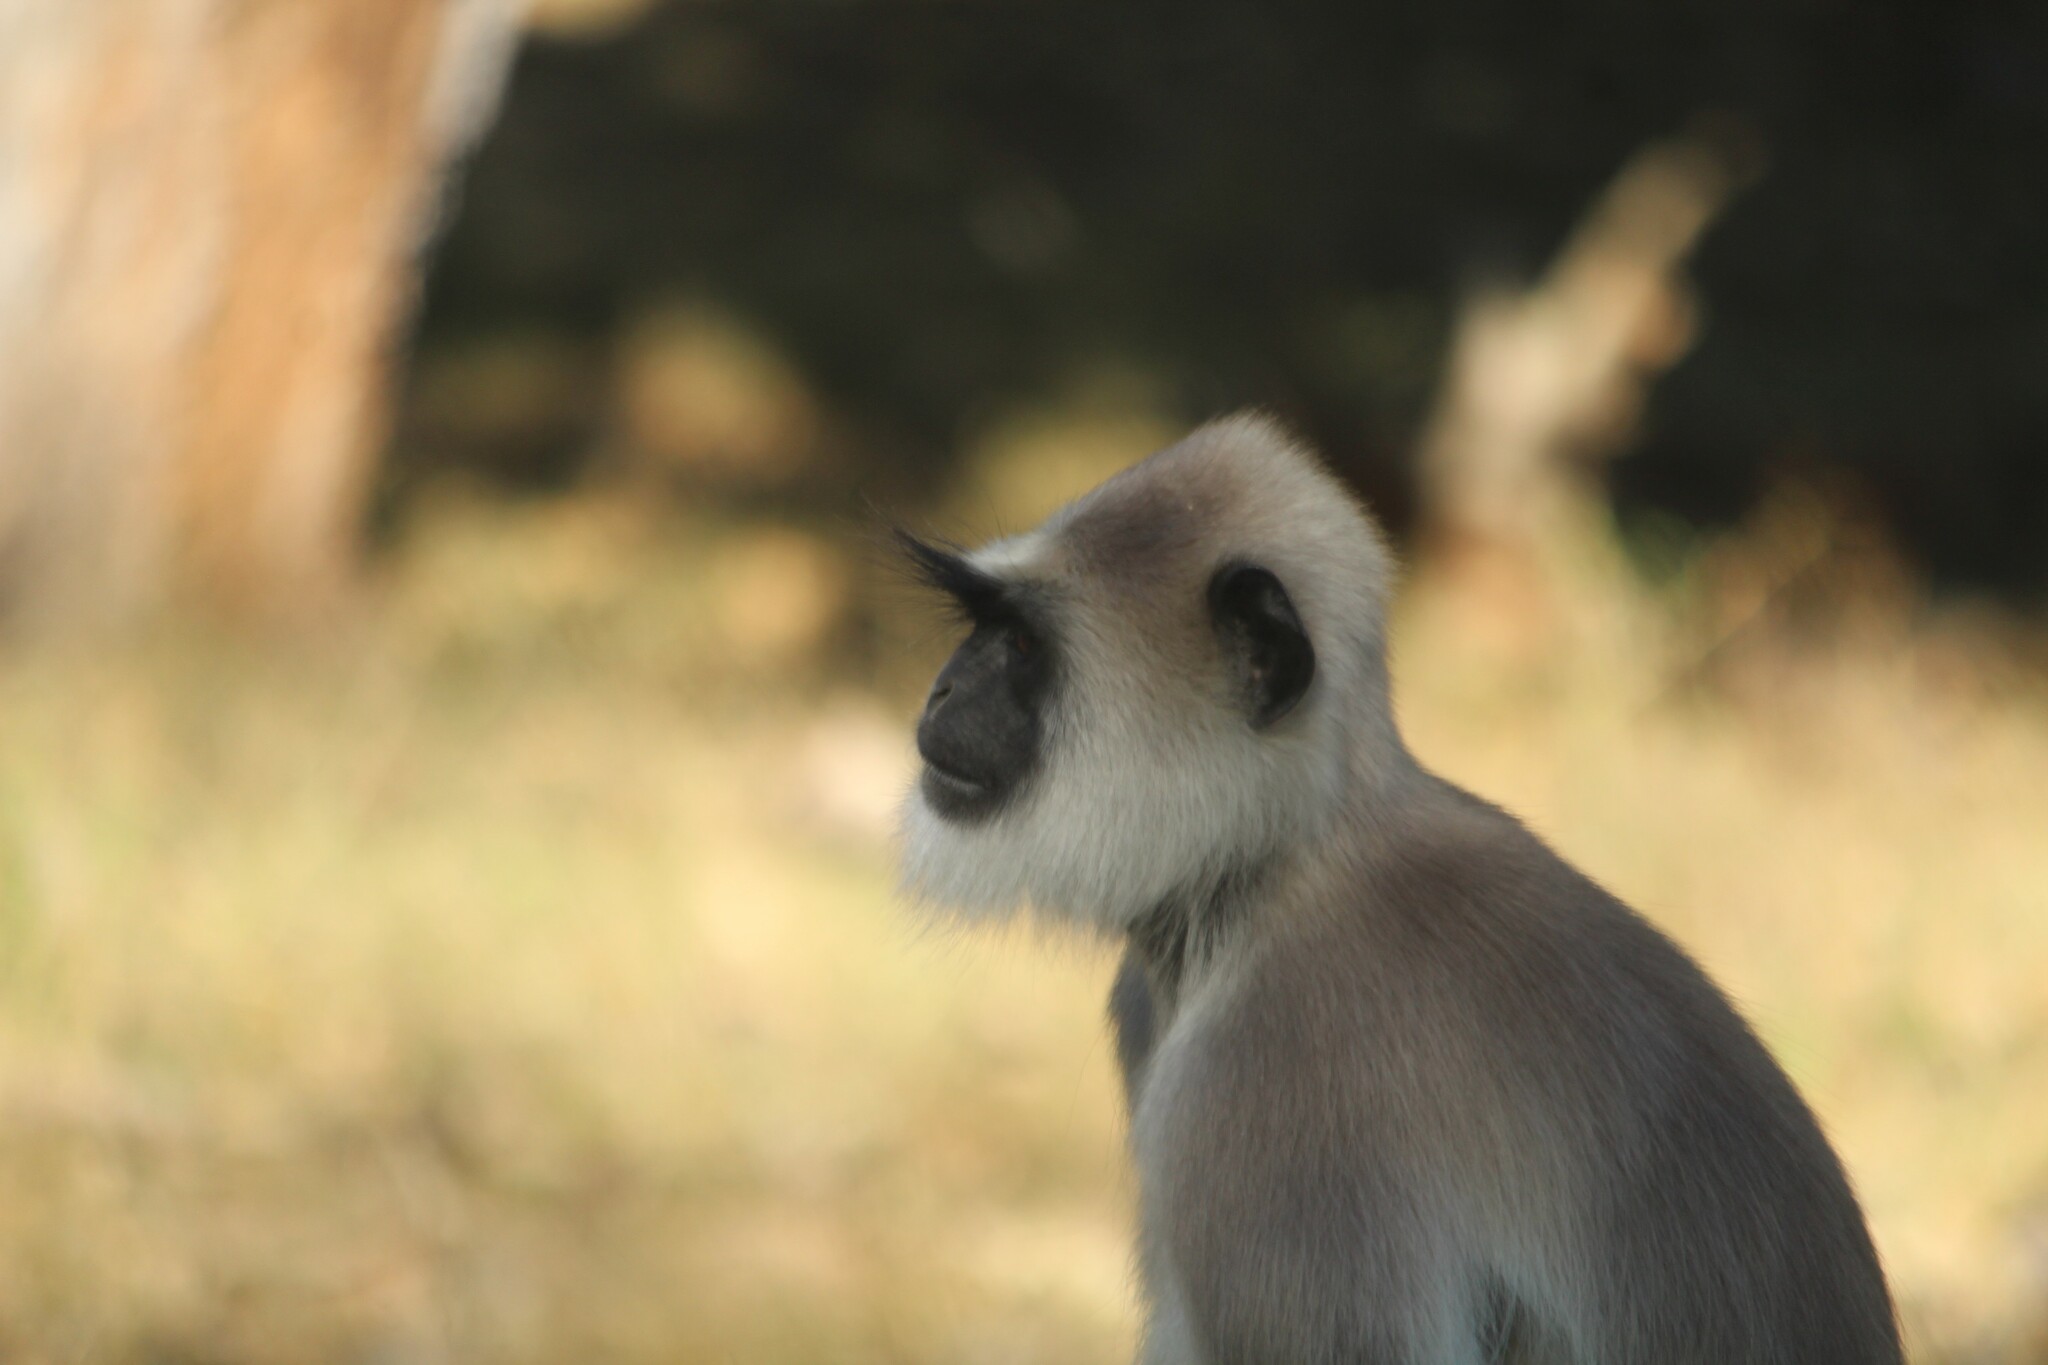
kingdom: Animalia
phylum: Chordata
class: Mammalia
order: Primates
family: Cercopithecidae
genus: Semnopithecus
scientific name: Semnopithecus priam
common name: Tufted gray langur
